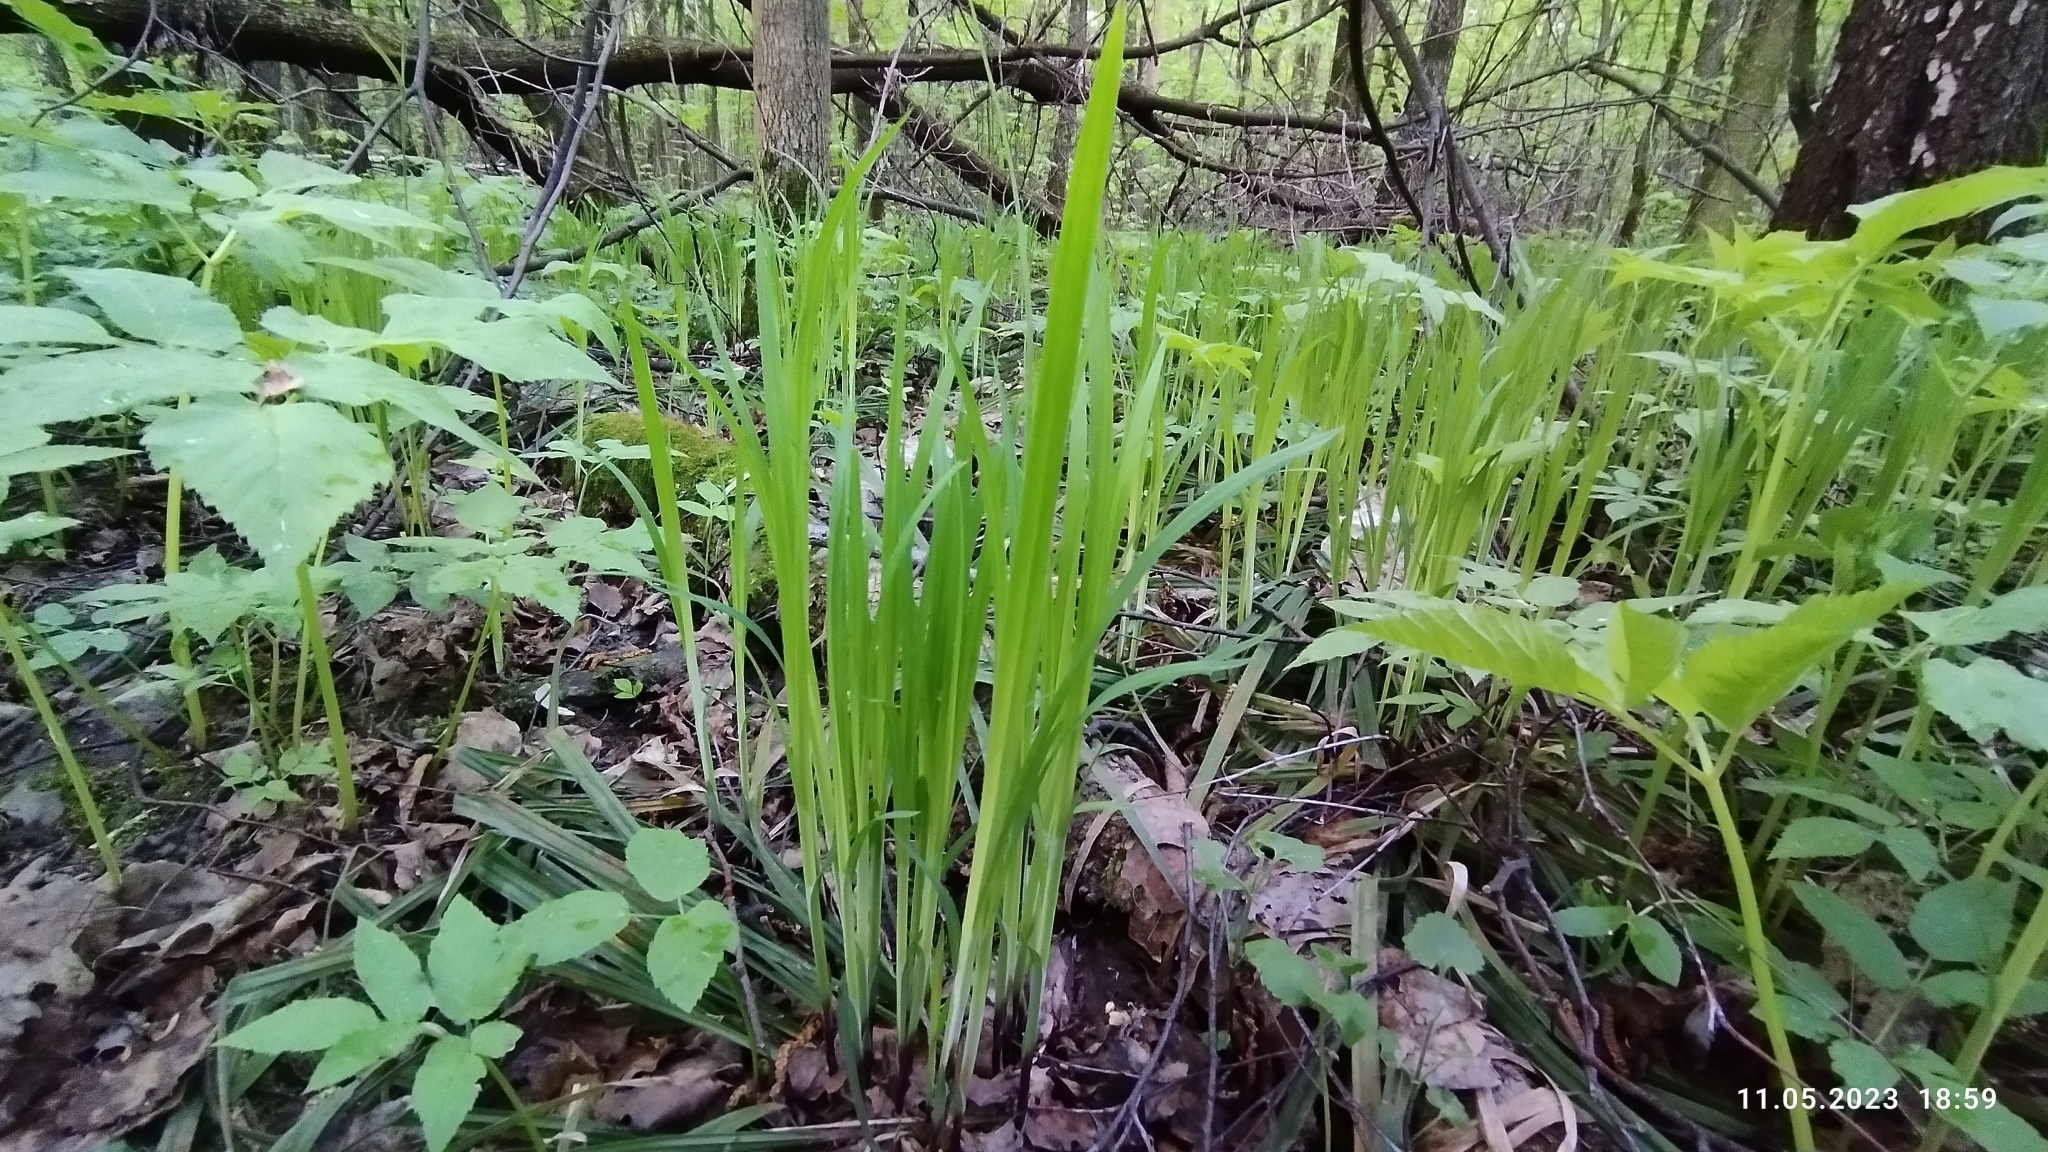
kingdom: Plantae
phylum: Tracheophyta
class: Liliopsida
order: Poales
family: Cyperaceae
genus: Carex
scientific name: Carex pilosa
